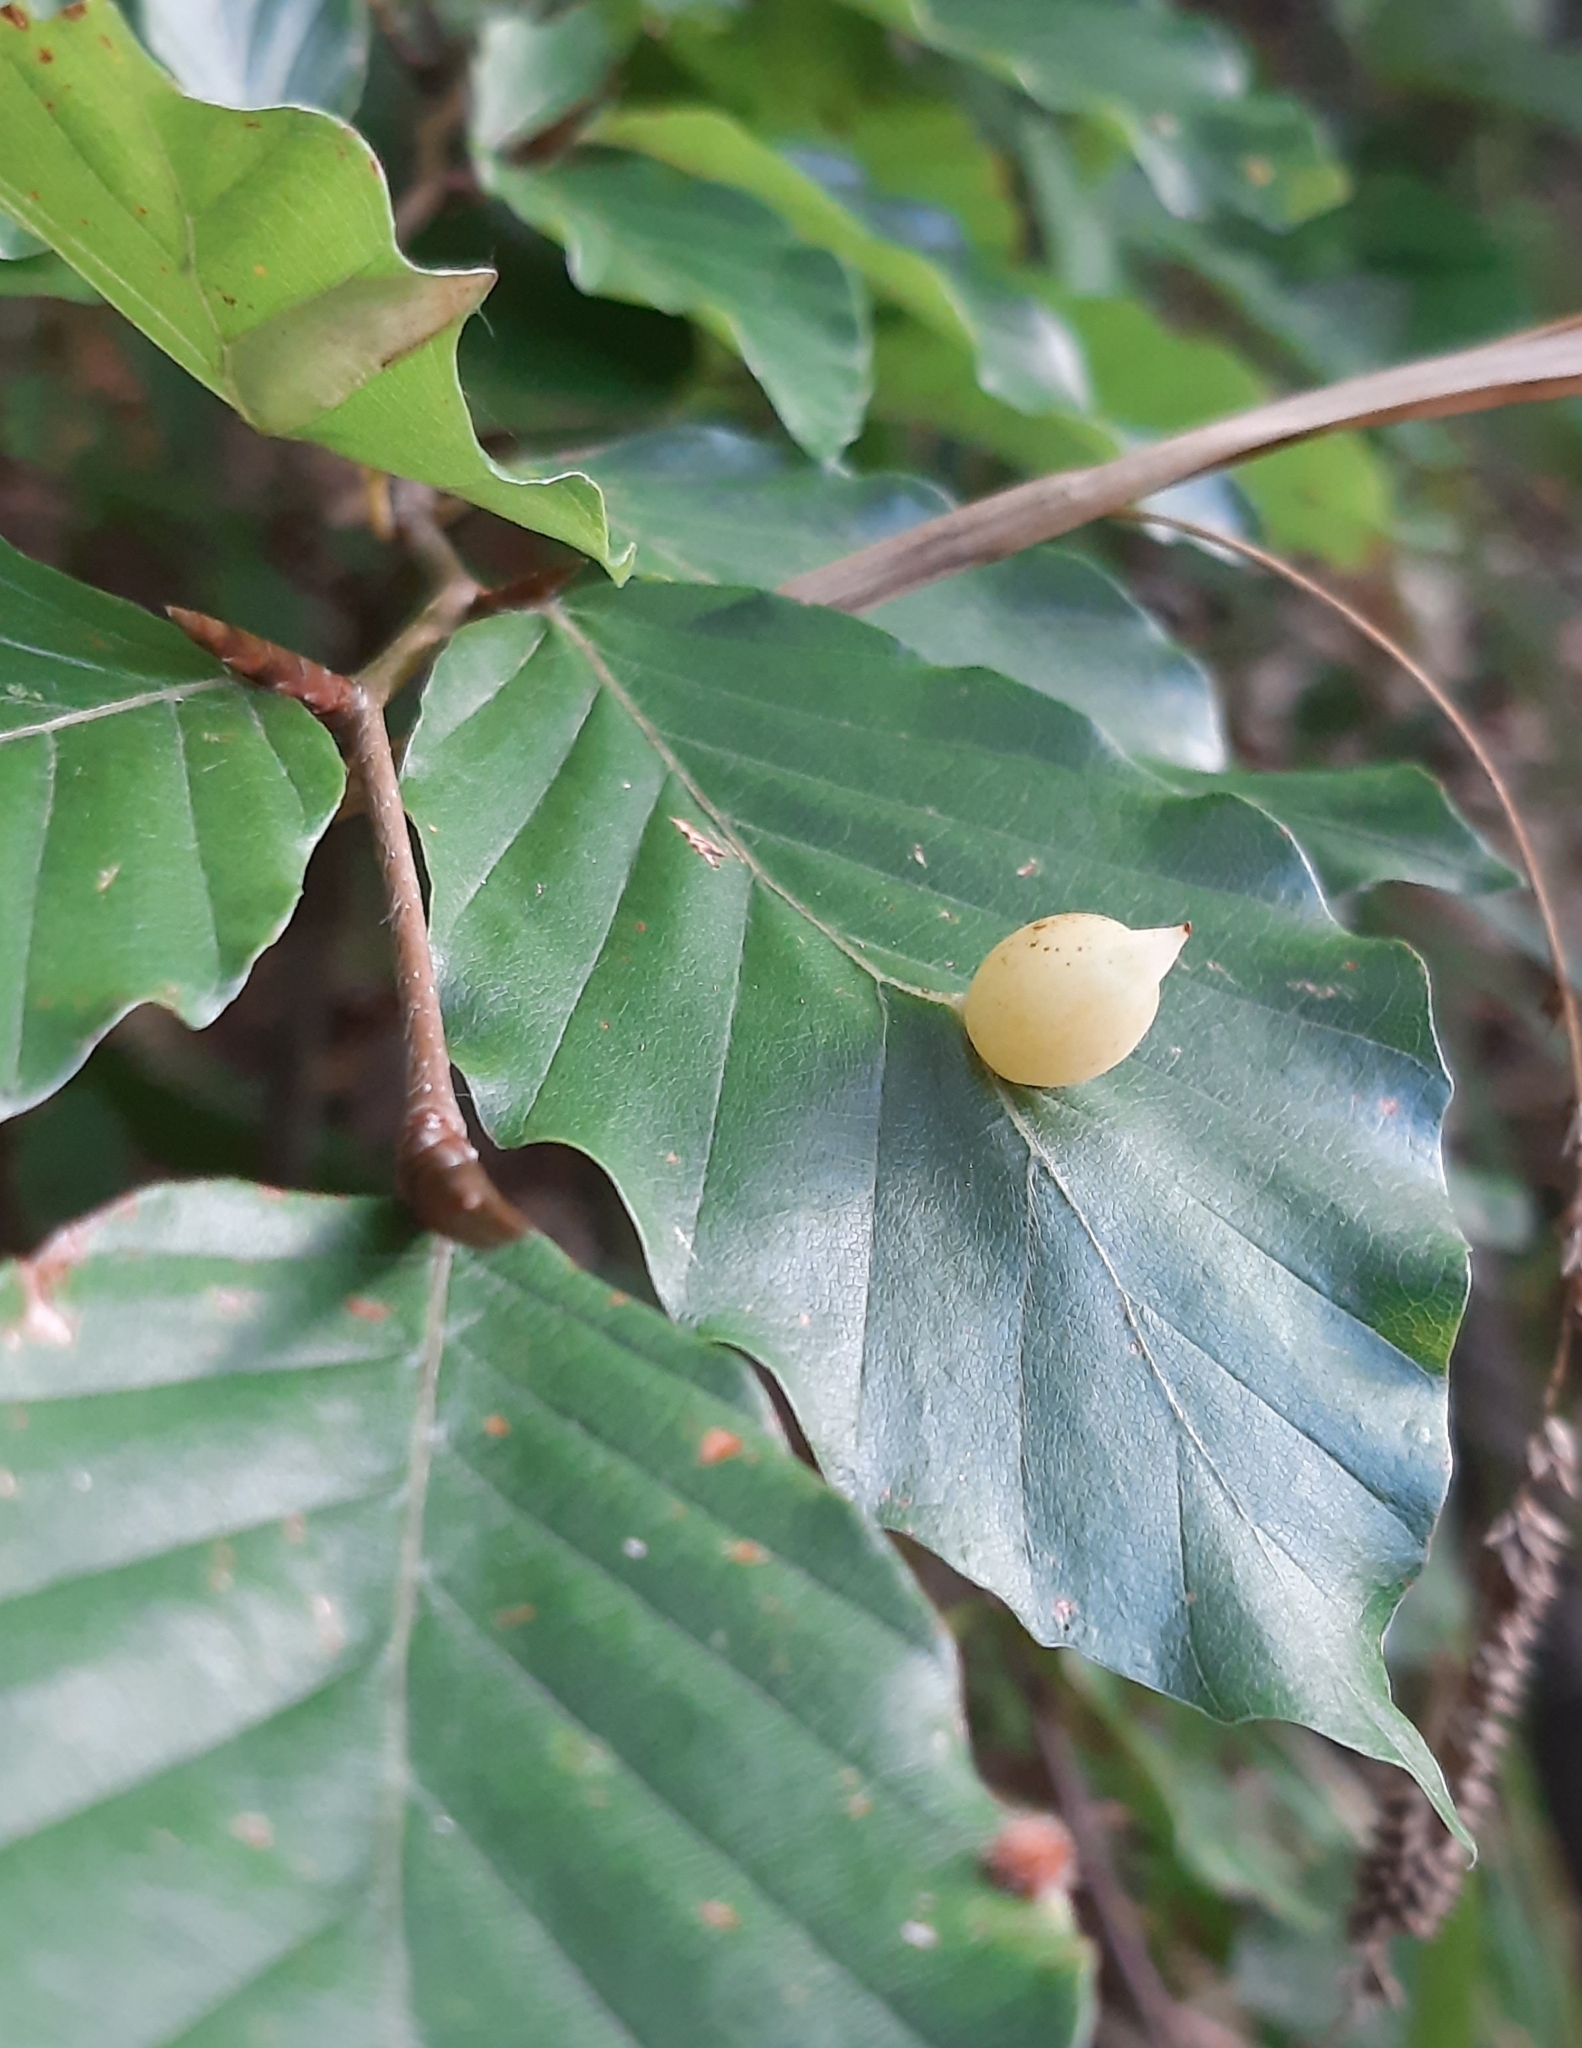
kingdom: Animalia
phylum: Arthropoda
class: Insecta
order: Diptera
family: Cecidomyiidae
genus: Mikiola
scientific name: Mikiola fagi
